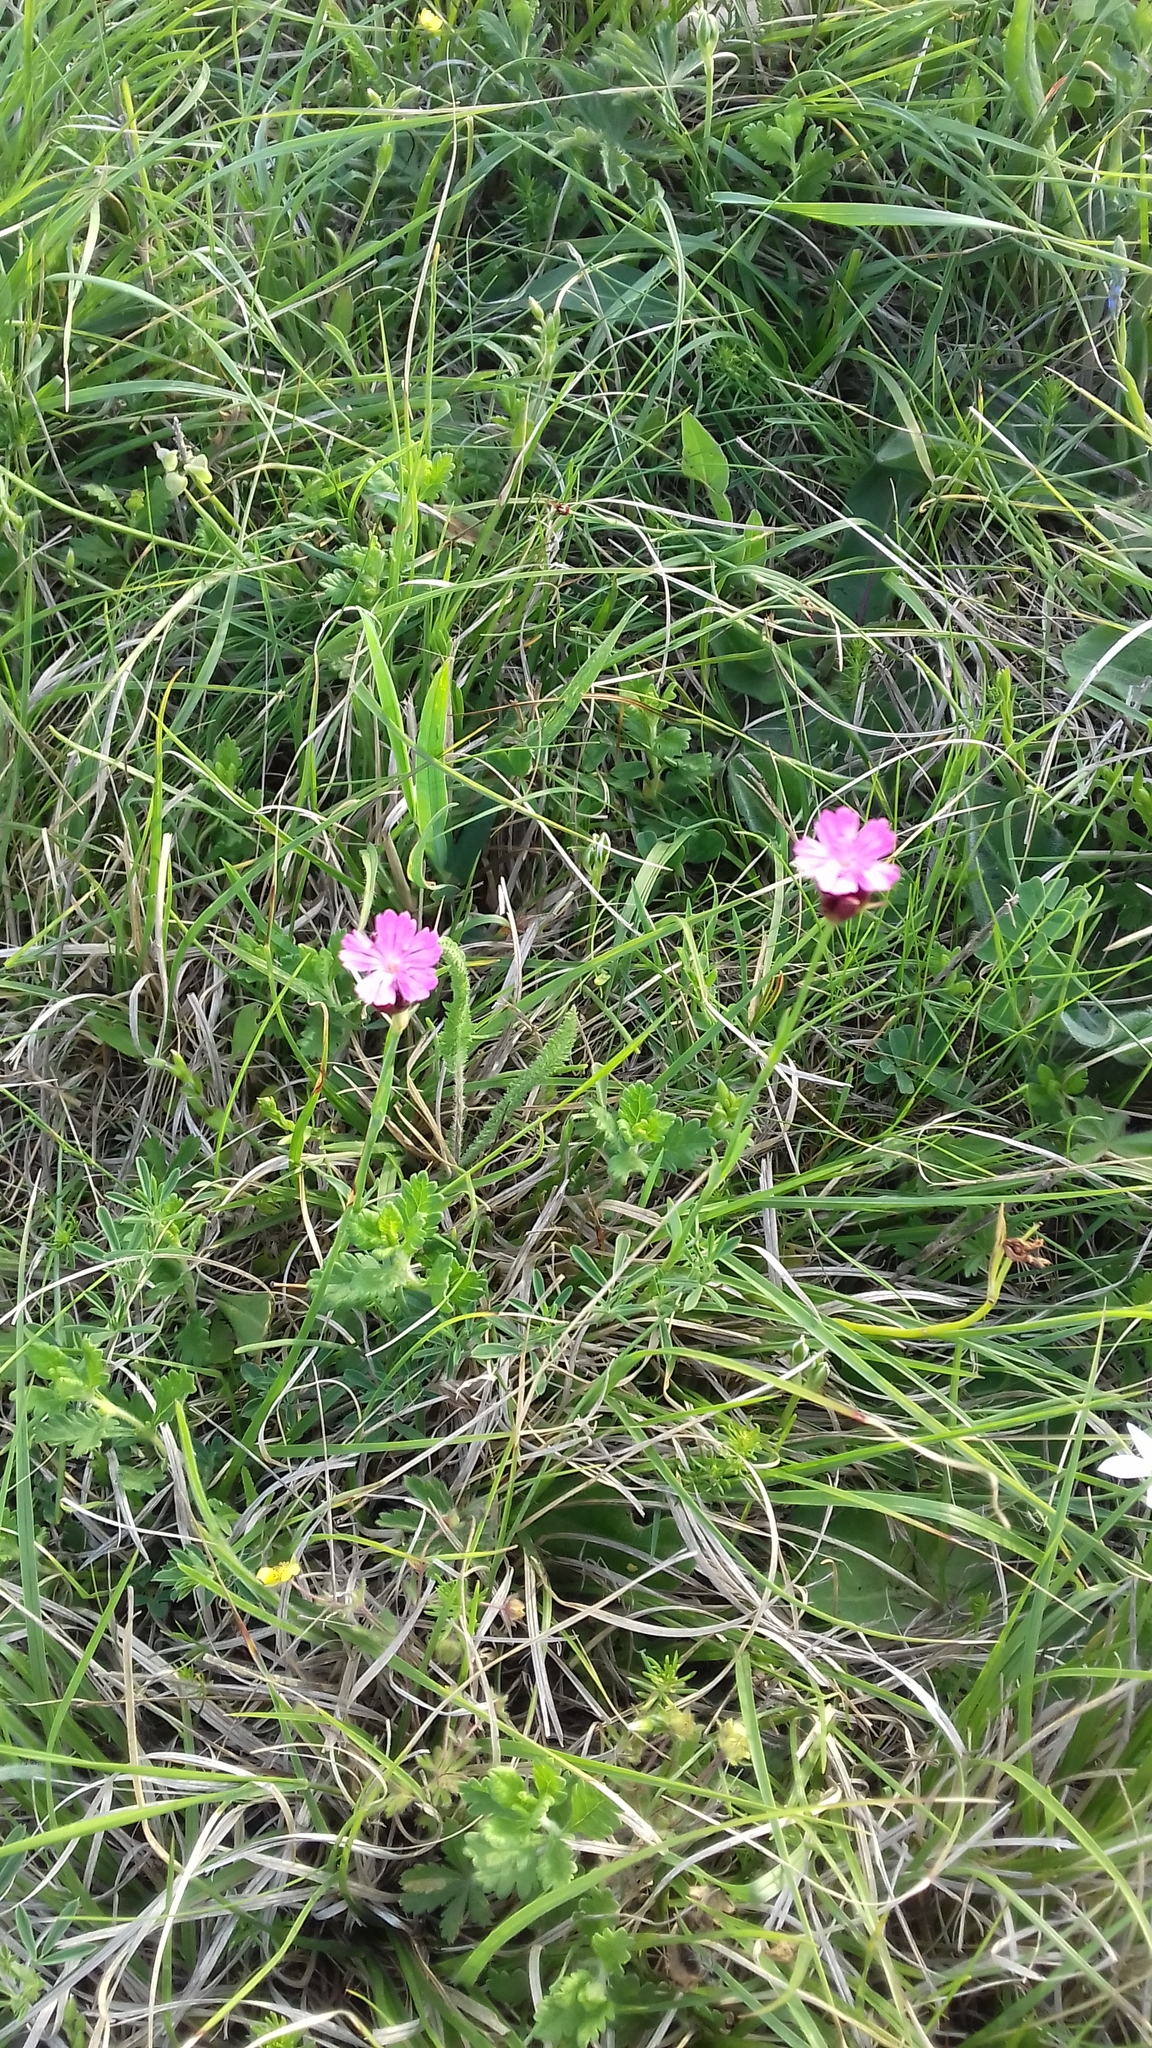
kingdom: Plantae
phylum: Tracheophyta
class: Magnoliopsida
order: Caryophyllales
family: Caryophyllaceae
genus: Dianthus
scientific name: Dianthus pontederae
